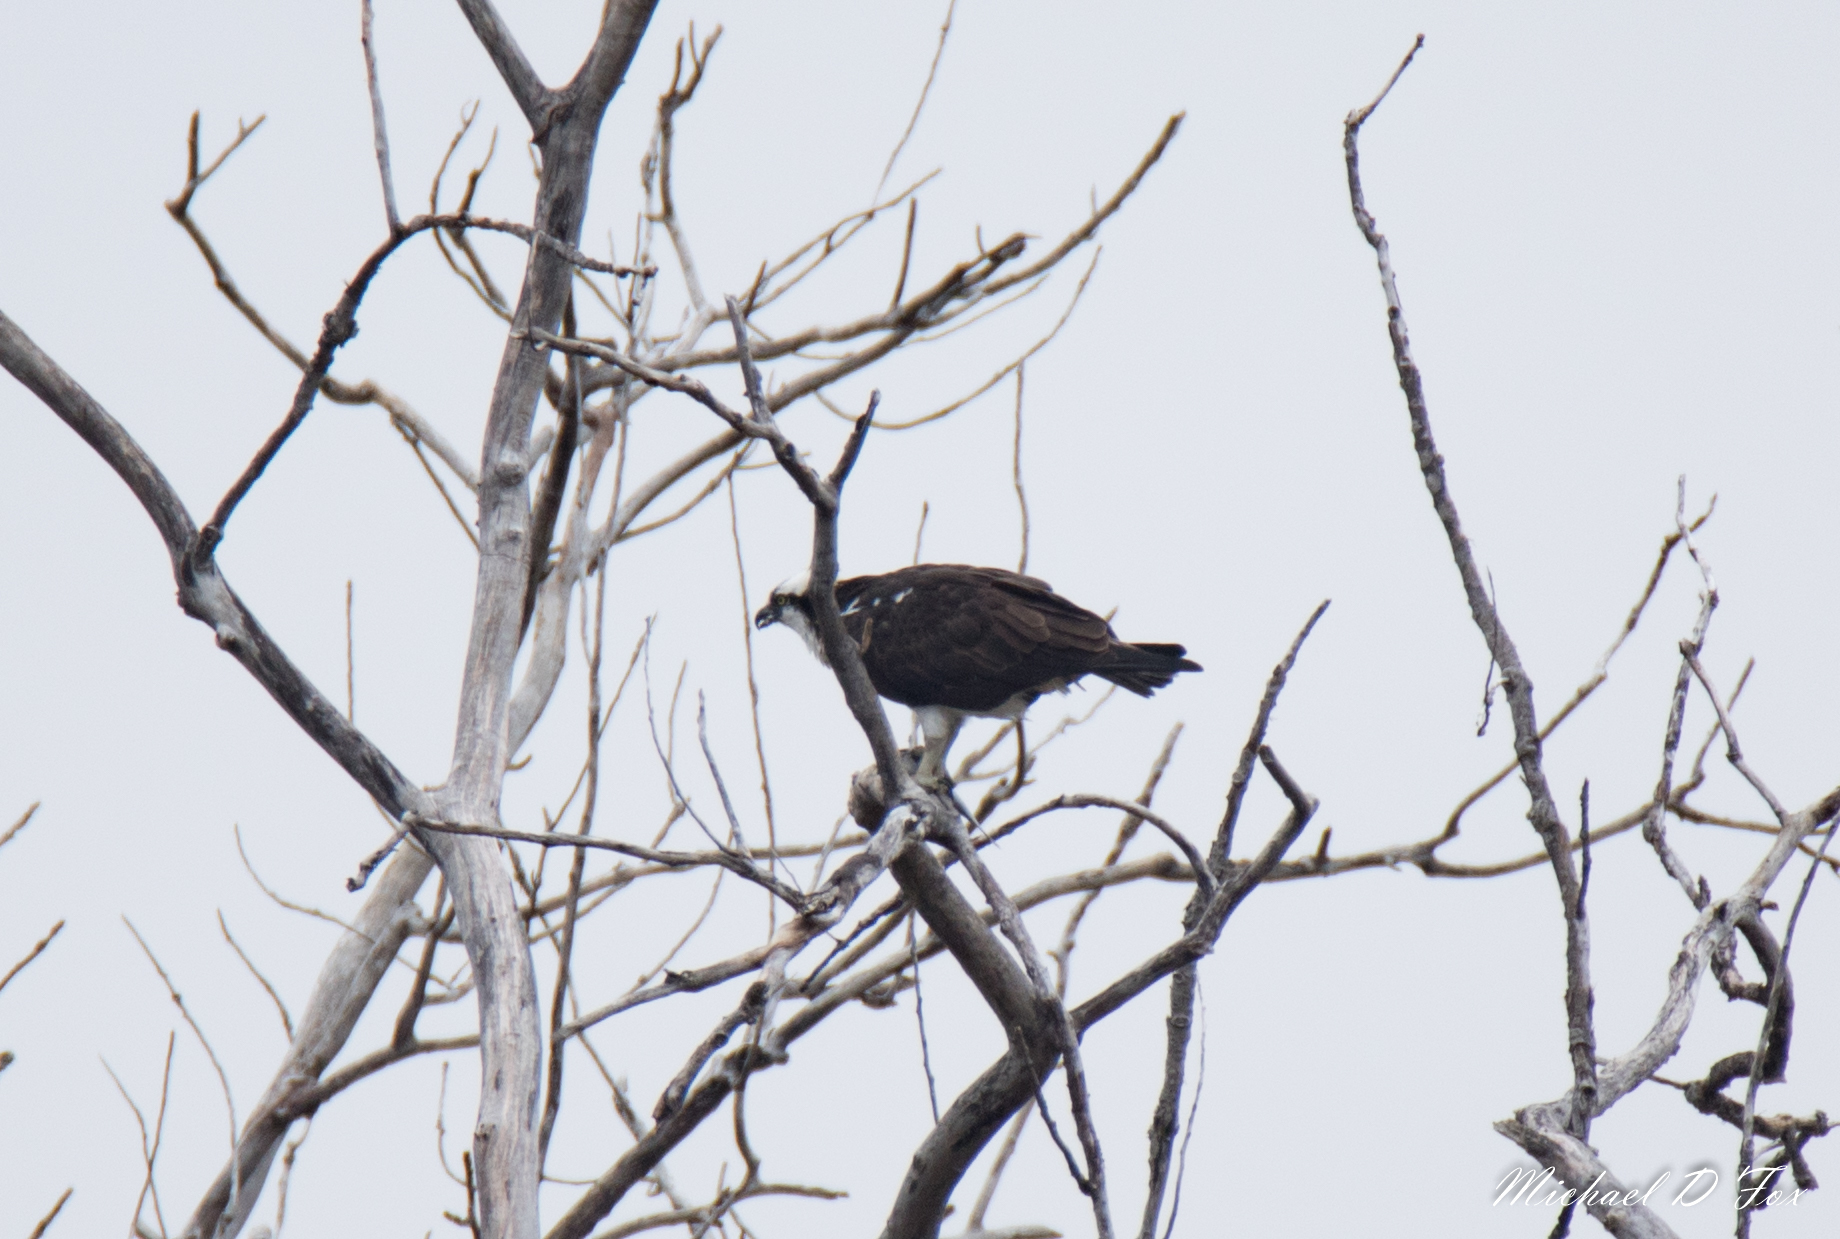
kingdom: Animalia
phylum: Chordata
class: Aves
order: Accipitriformes
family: Pandionidae
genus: Pandion
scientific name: Pandion haliaetus
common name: Osprey
